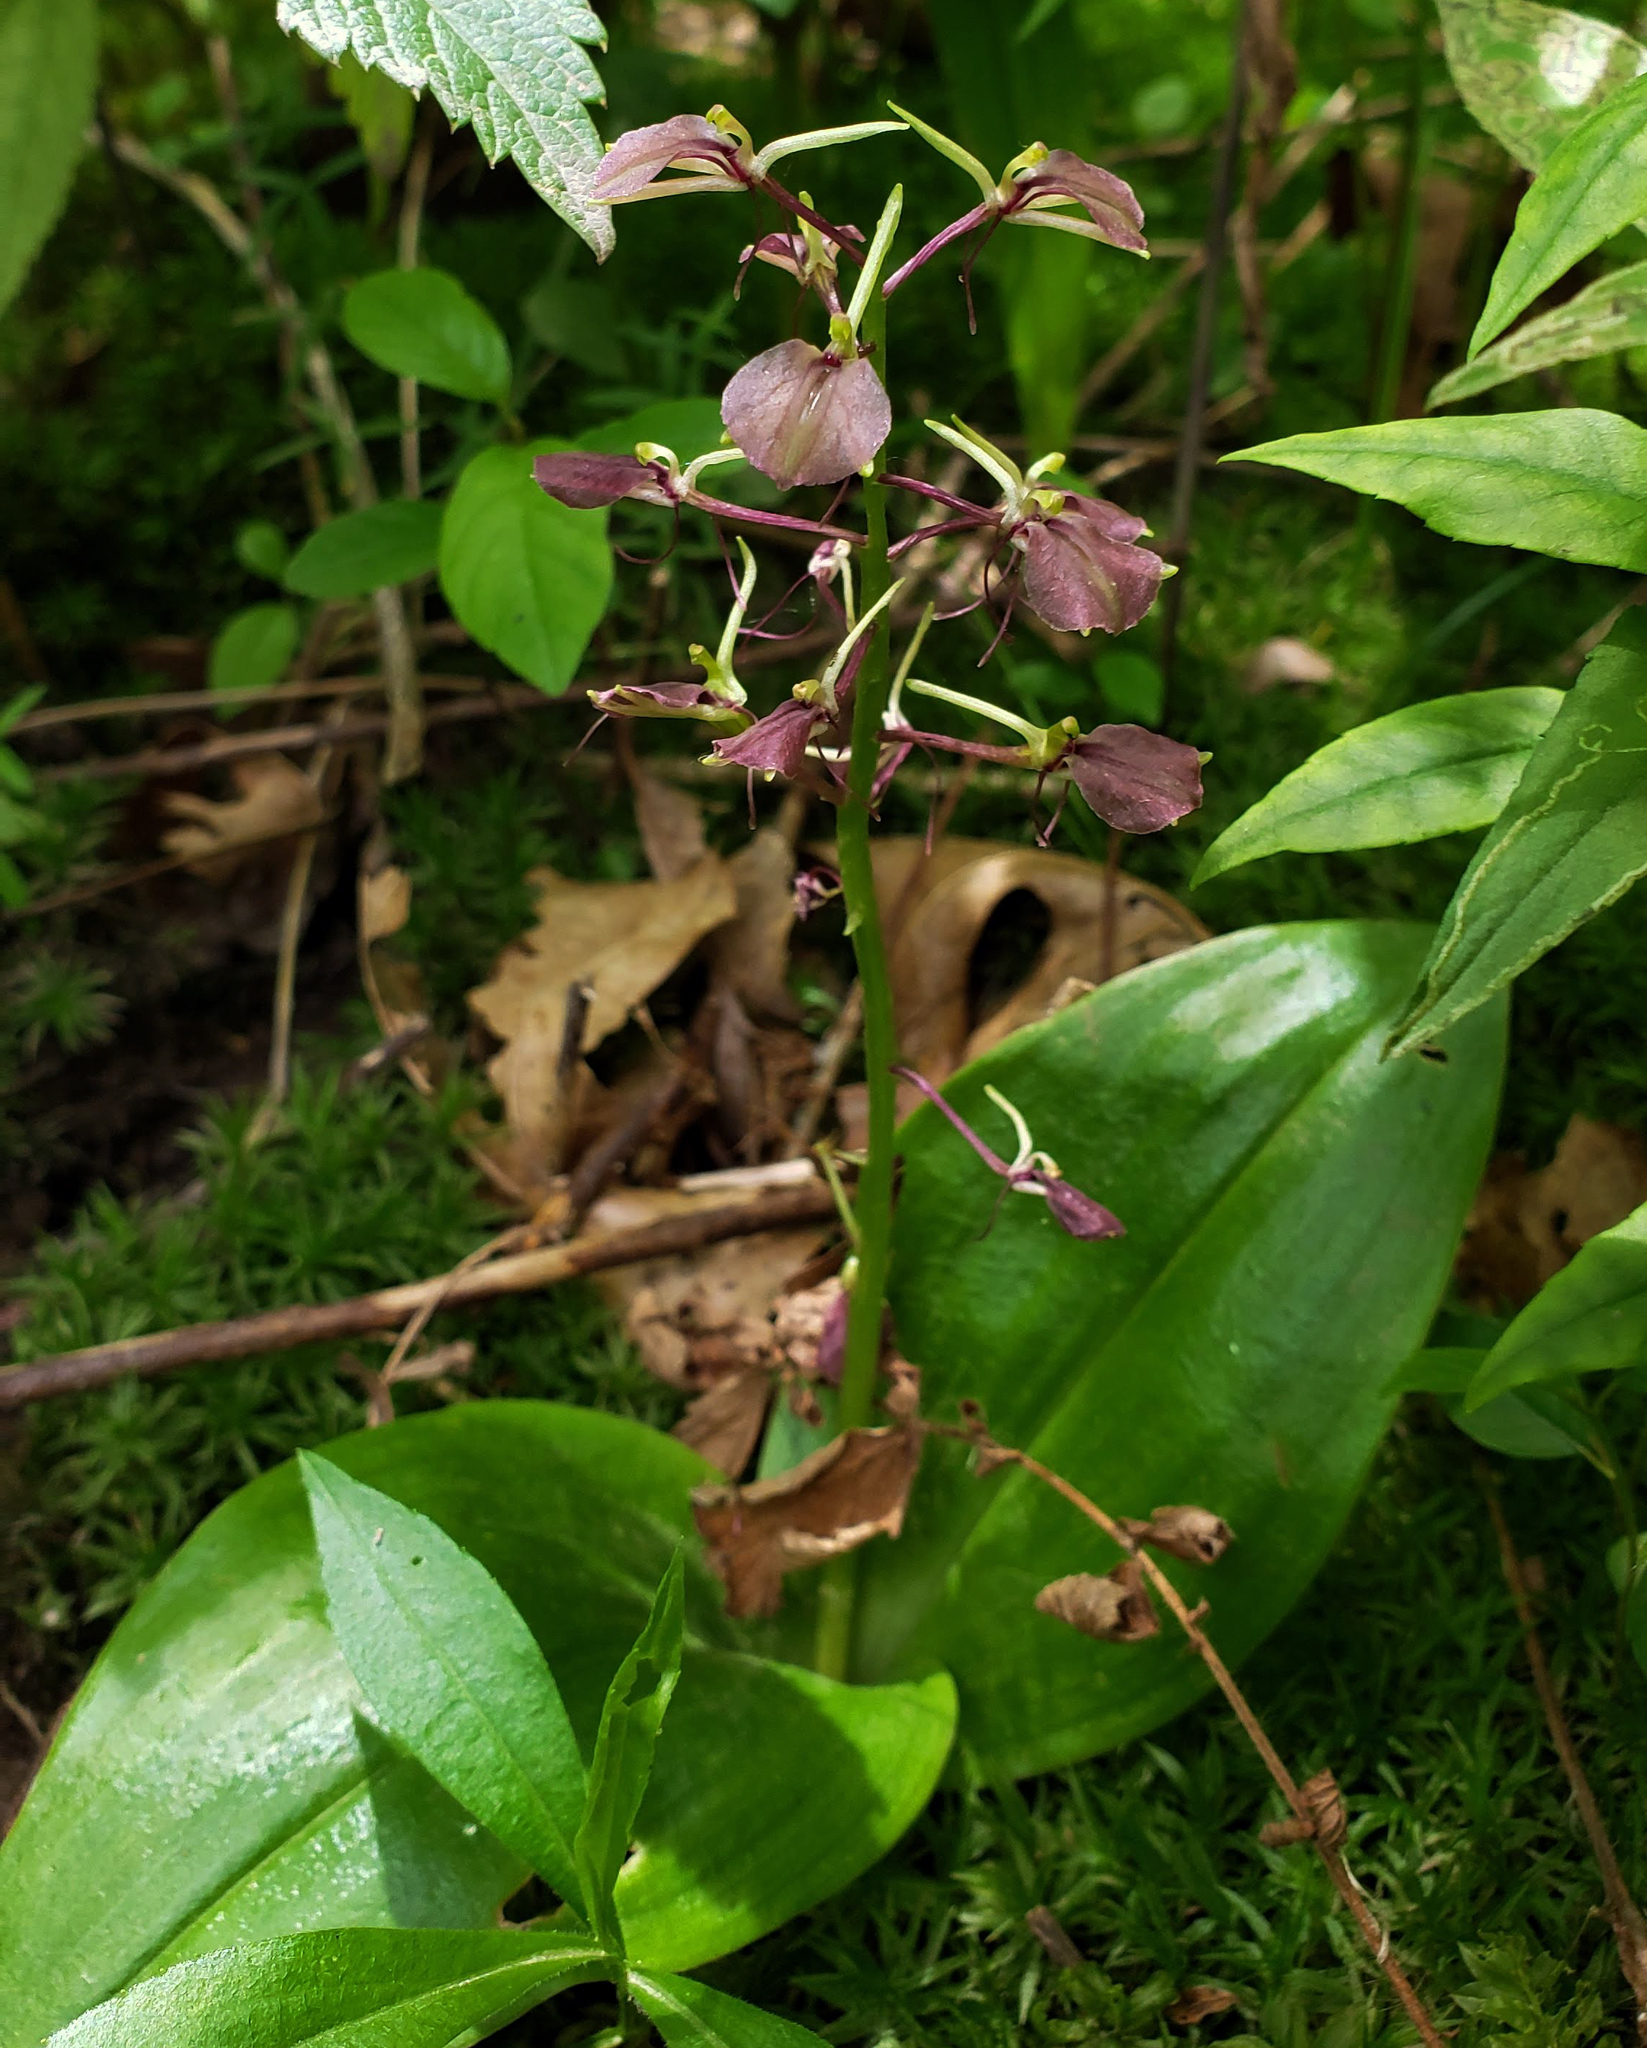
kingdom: Plantae
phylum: Tracheophyta
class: Liliopsida
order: Asparagales
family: Orchidaceae
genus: Liparis
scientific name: Liparis liliifolia
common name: Brown wide-lip orchid
